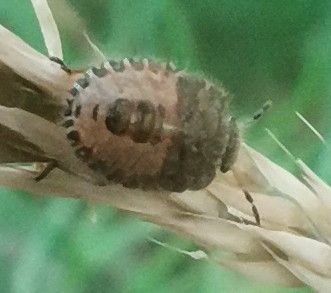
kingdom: Animalia
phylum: Arthropoda
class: Insecta
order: Hemiptera
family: Pentatomidae
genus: Dolycoris
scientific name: Dolycoris baccarum
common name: Sloe bug
